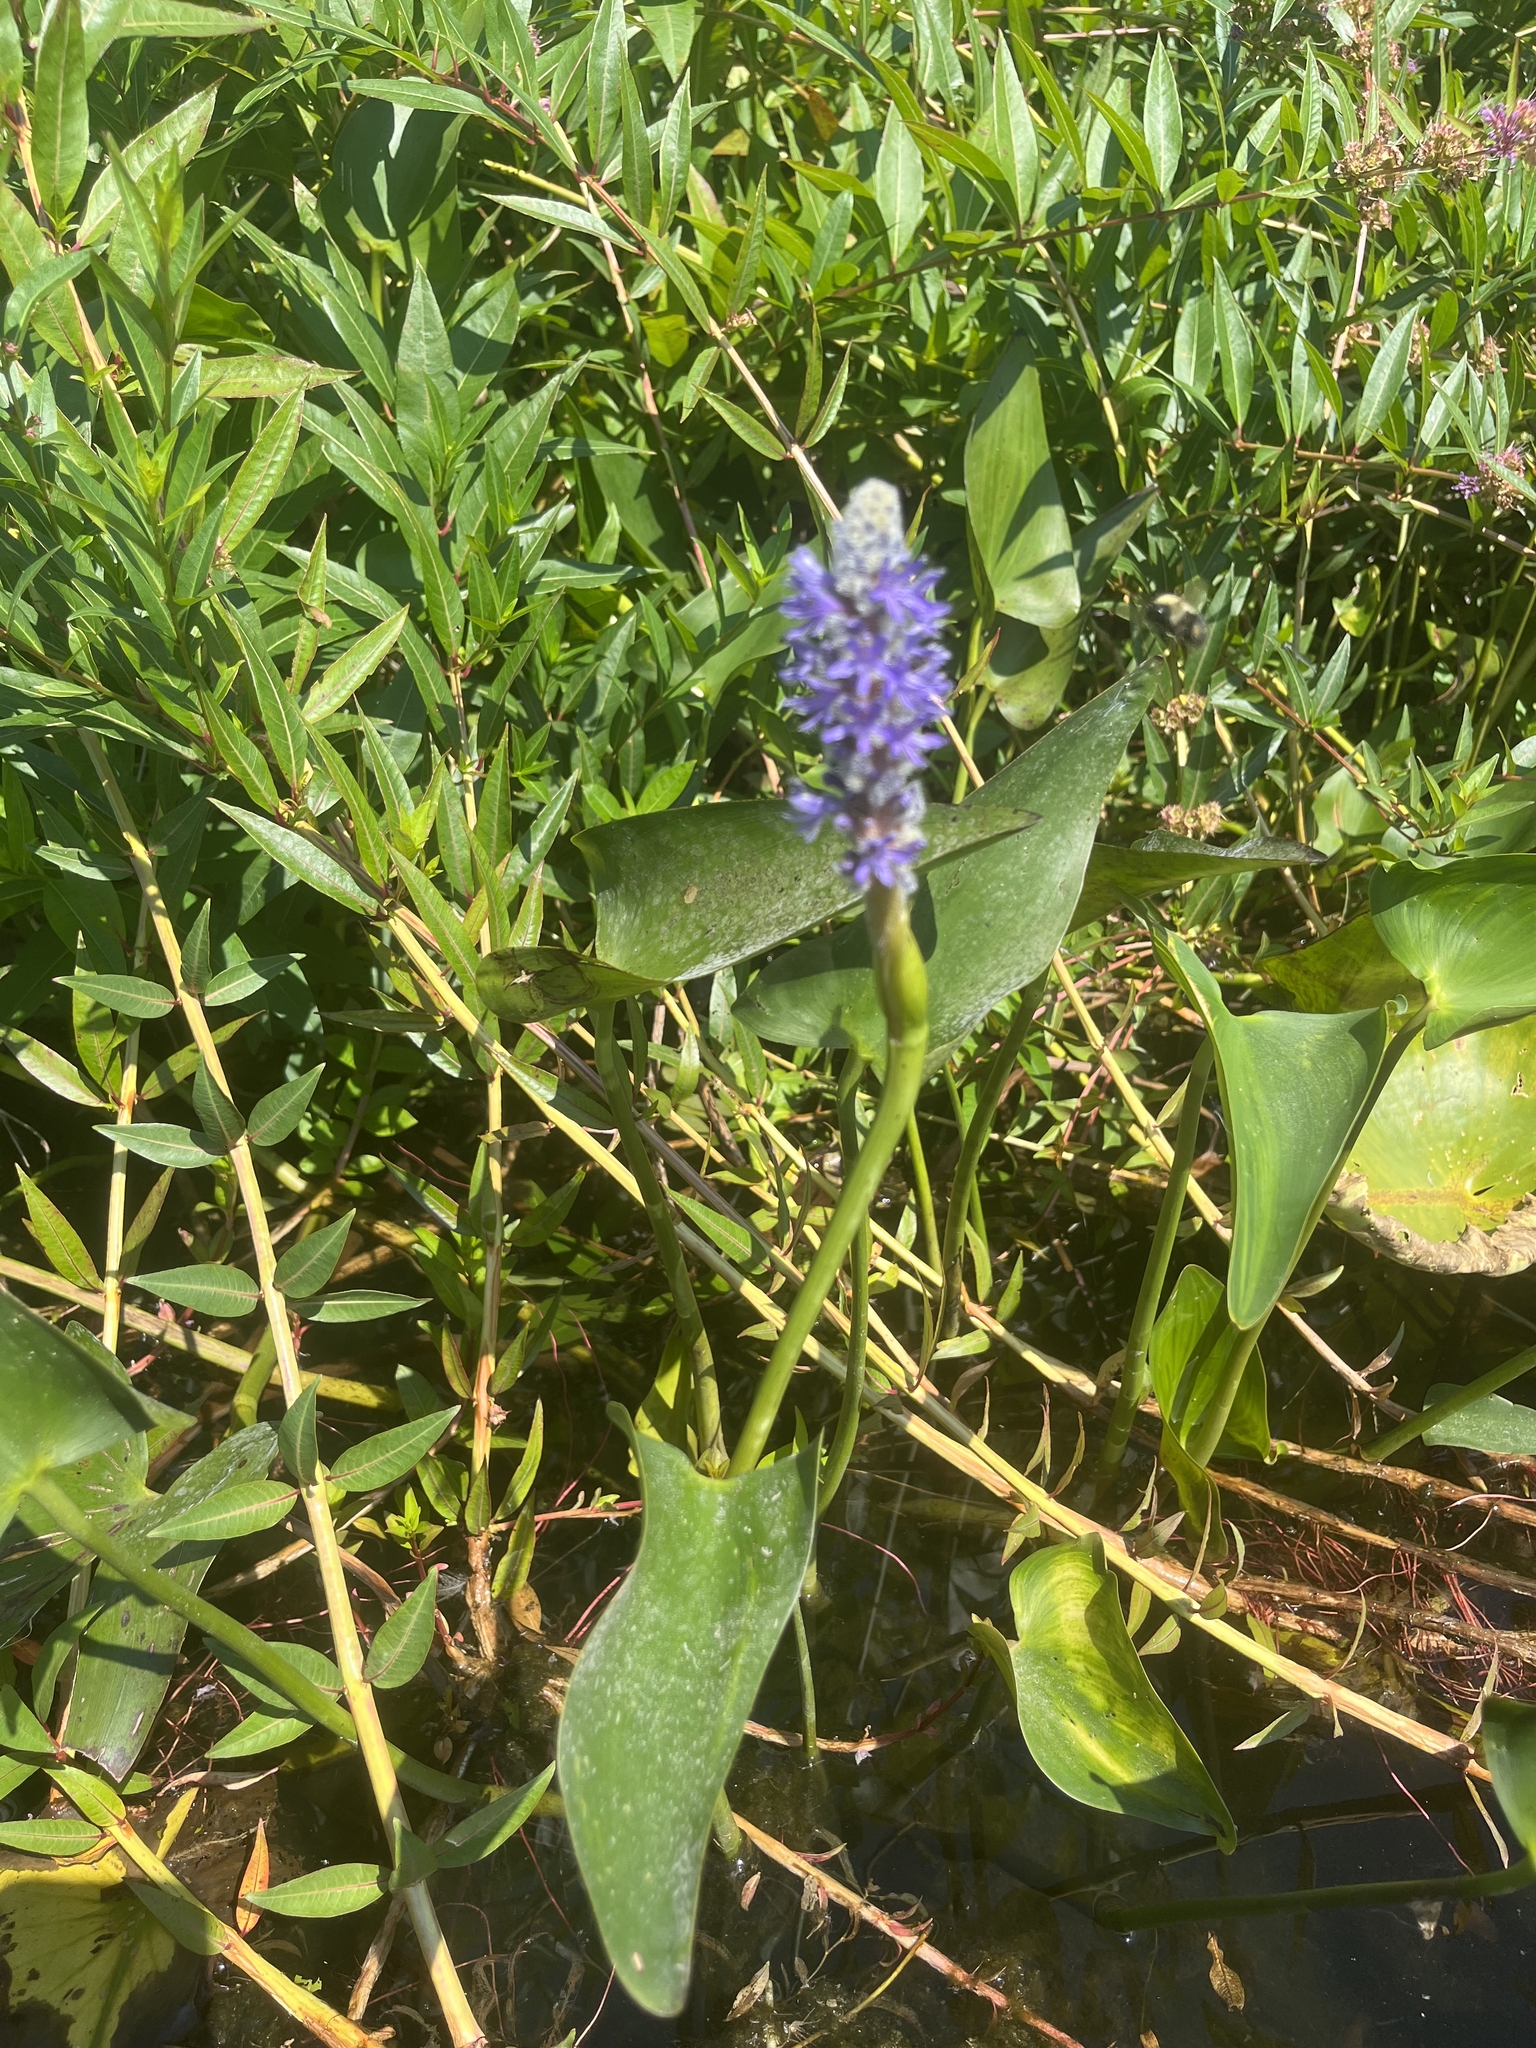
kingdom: Plantae
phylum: Tracheophyta
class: Liliopsida
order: Commelinales
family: Pontederiaceae
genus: Pontederia
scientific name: Pontederia cordata
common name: Pickerelweed
